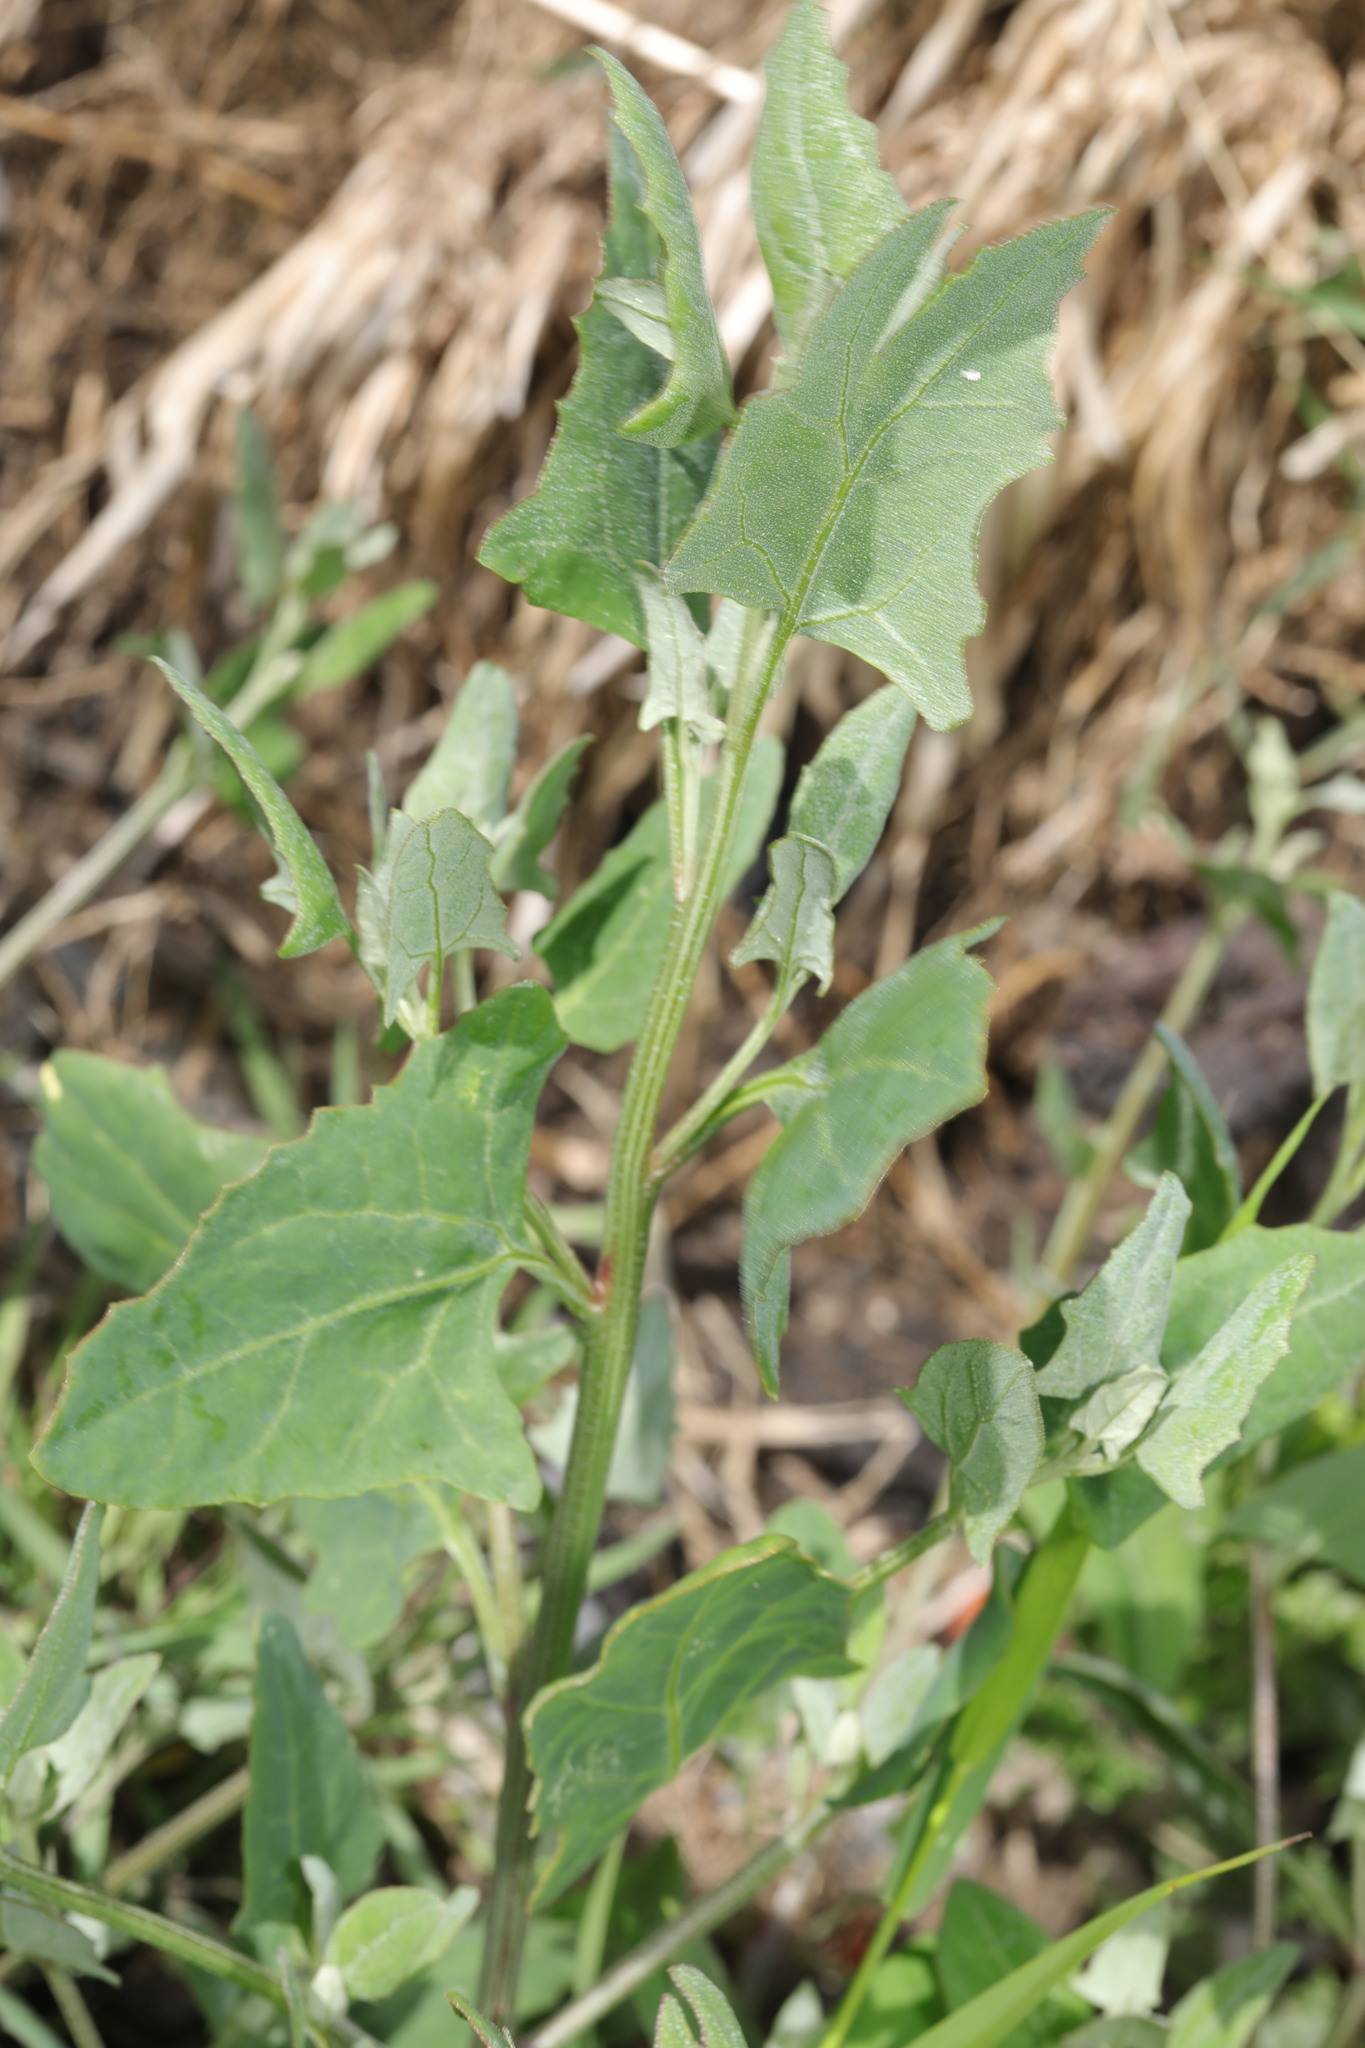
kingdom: Plantae
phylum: Tracheophyta
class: Magnoliopsida
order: Caryophyllales
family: Amaranthaceae
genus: Atriplex
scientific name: Atriplex prostrata
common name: Spear-leaved orache
